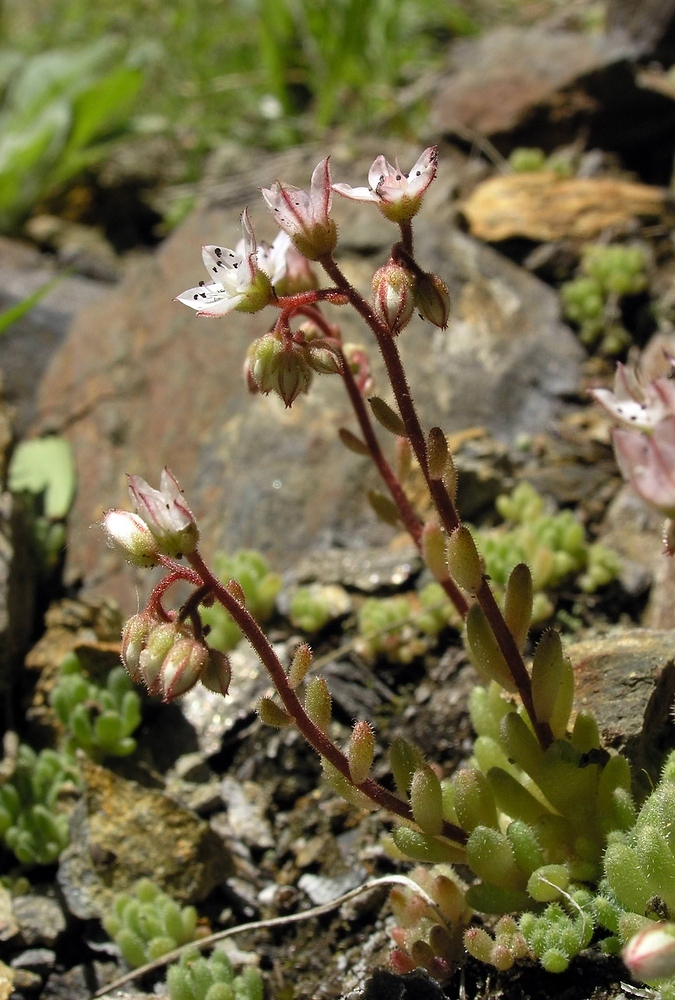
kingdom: Plantae
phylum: Tracheophyta
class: Magnoliopsida
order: Saxifragales
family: Crassulaceae
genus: Sedum
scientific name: Sedum hirsutum
